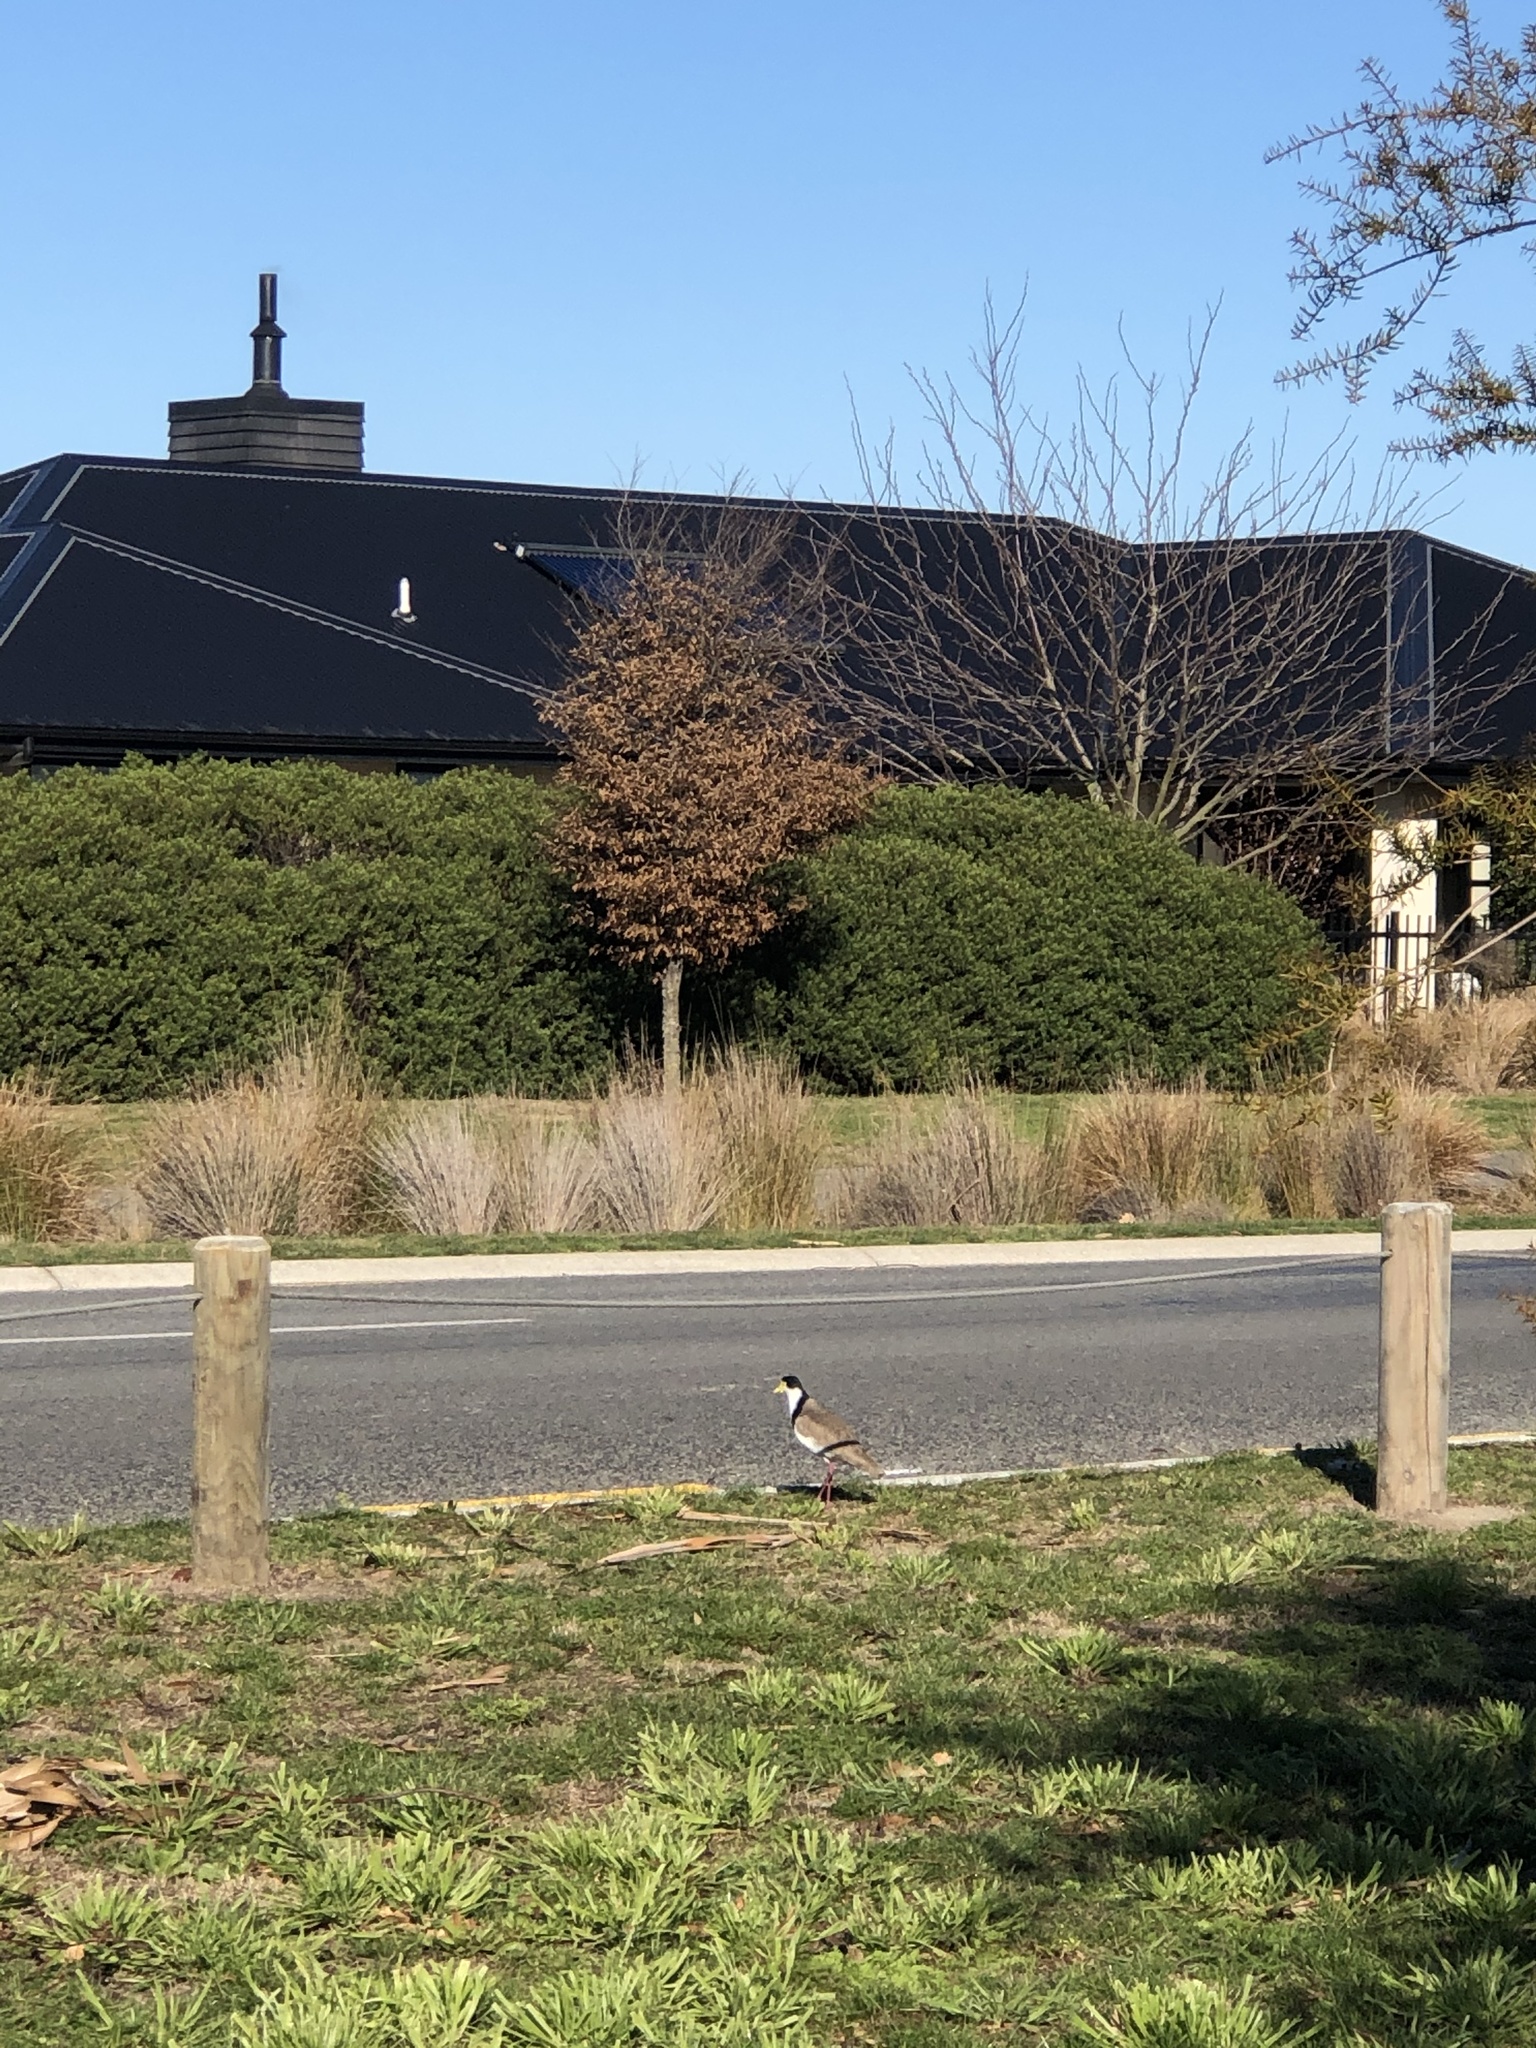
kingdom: Animalia
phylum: Chordata
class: Aves
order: Charadriiformes
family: Charadriidae
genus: Vanellus
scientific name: Vanellus miles
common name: Masked lapwing
